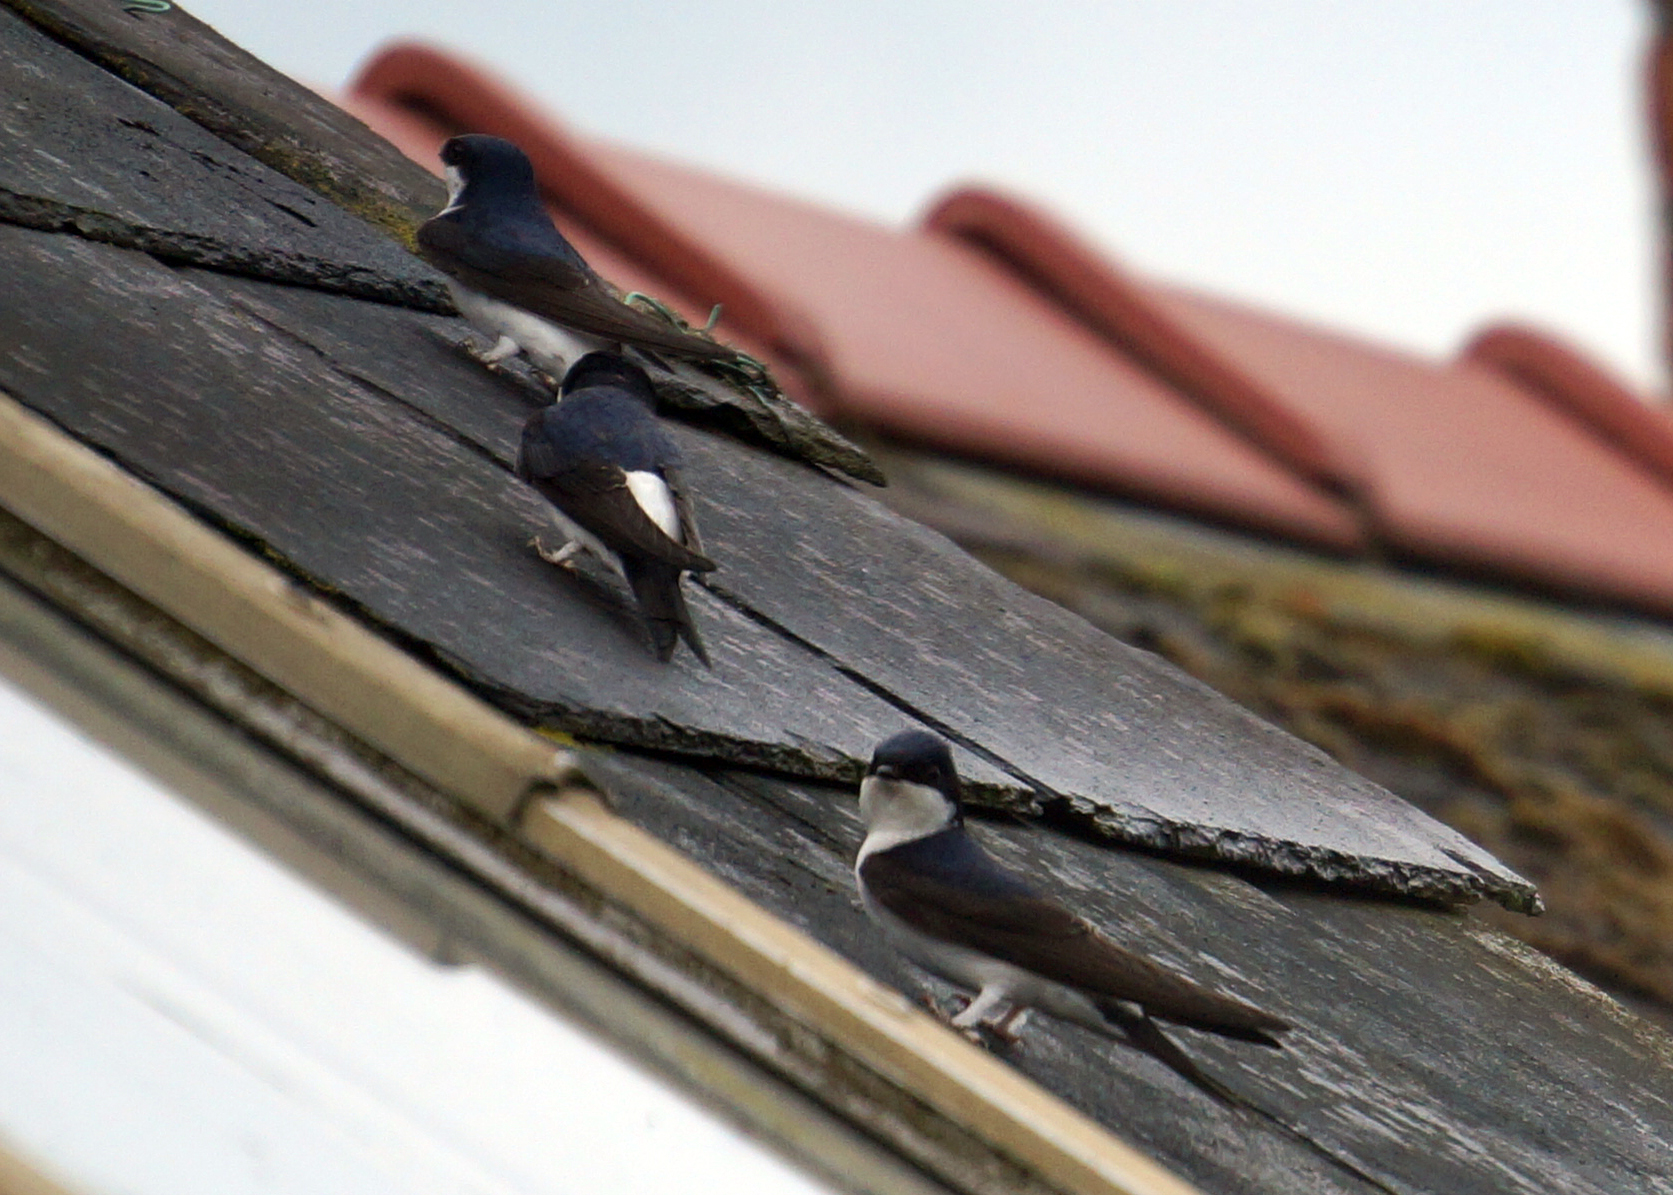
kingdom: Animalia
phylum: Chordata
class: Aves
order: Passeriformes
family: Hirundinidae
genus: Delichon
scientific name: Delichon urbicum
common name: Common house martin
